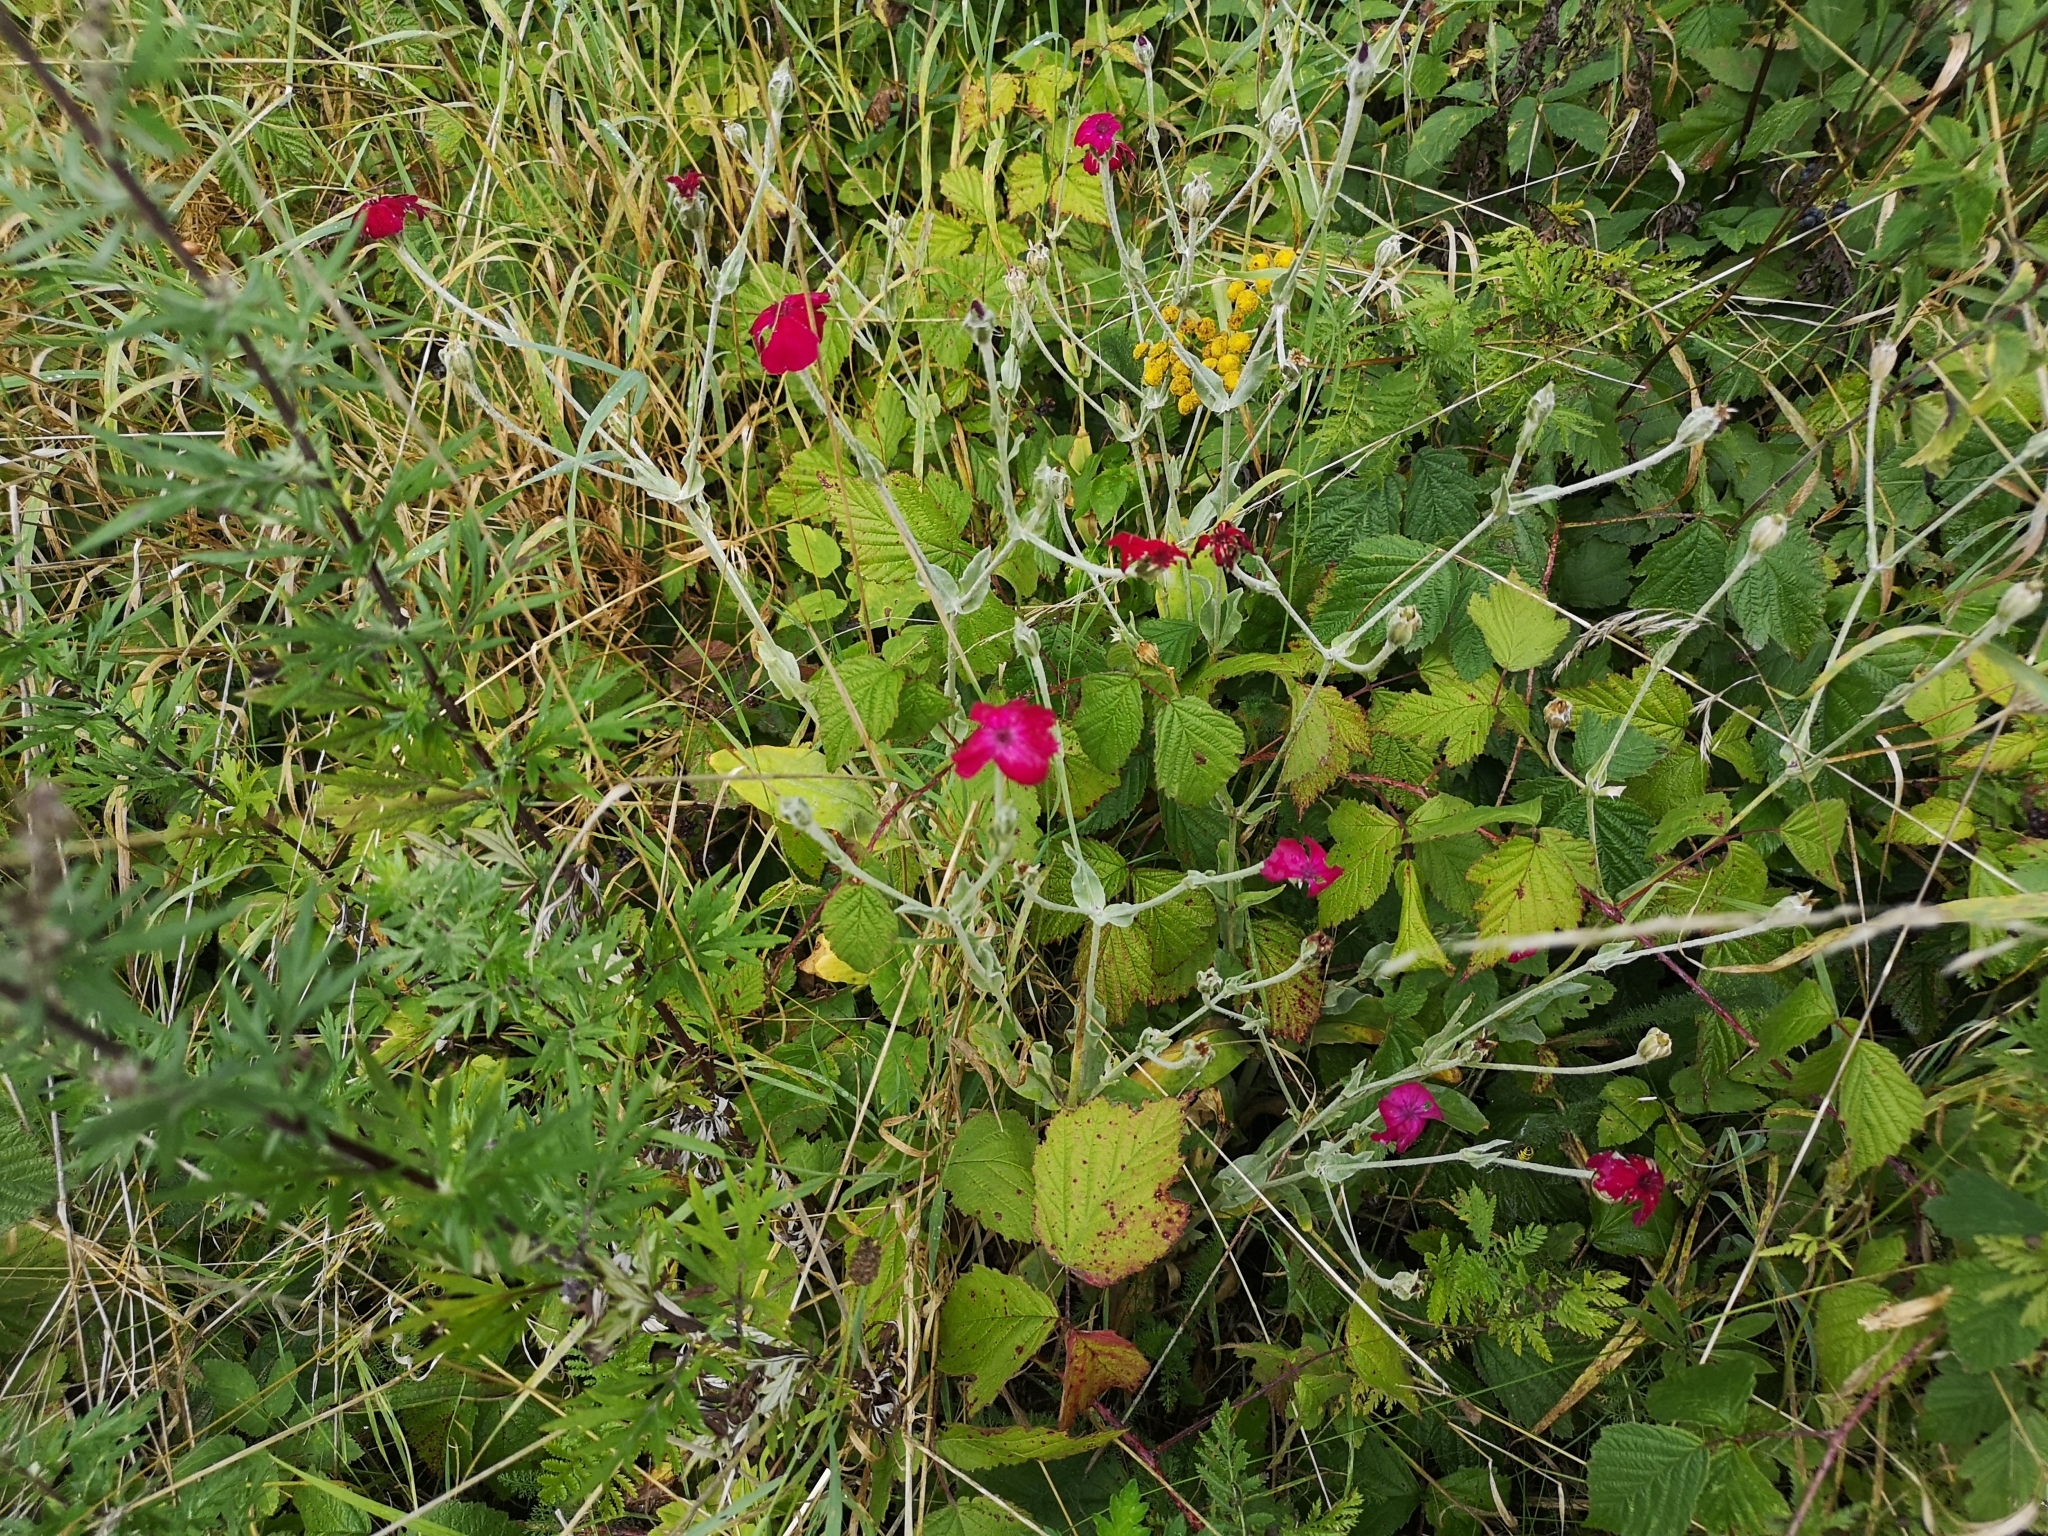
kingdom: Plantae
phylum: Tracheophyta
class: Magnoliopsida
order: Caryophyllales
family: Caryophyllaceae
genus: Silene
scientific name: Silene coronaria
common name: Rose campion
